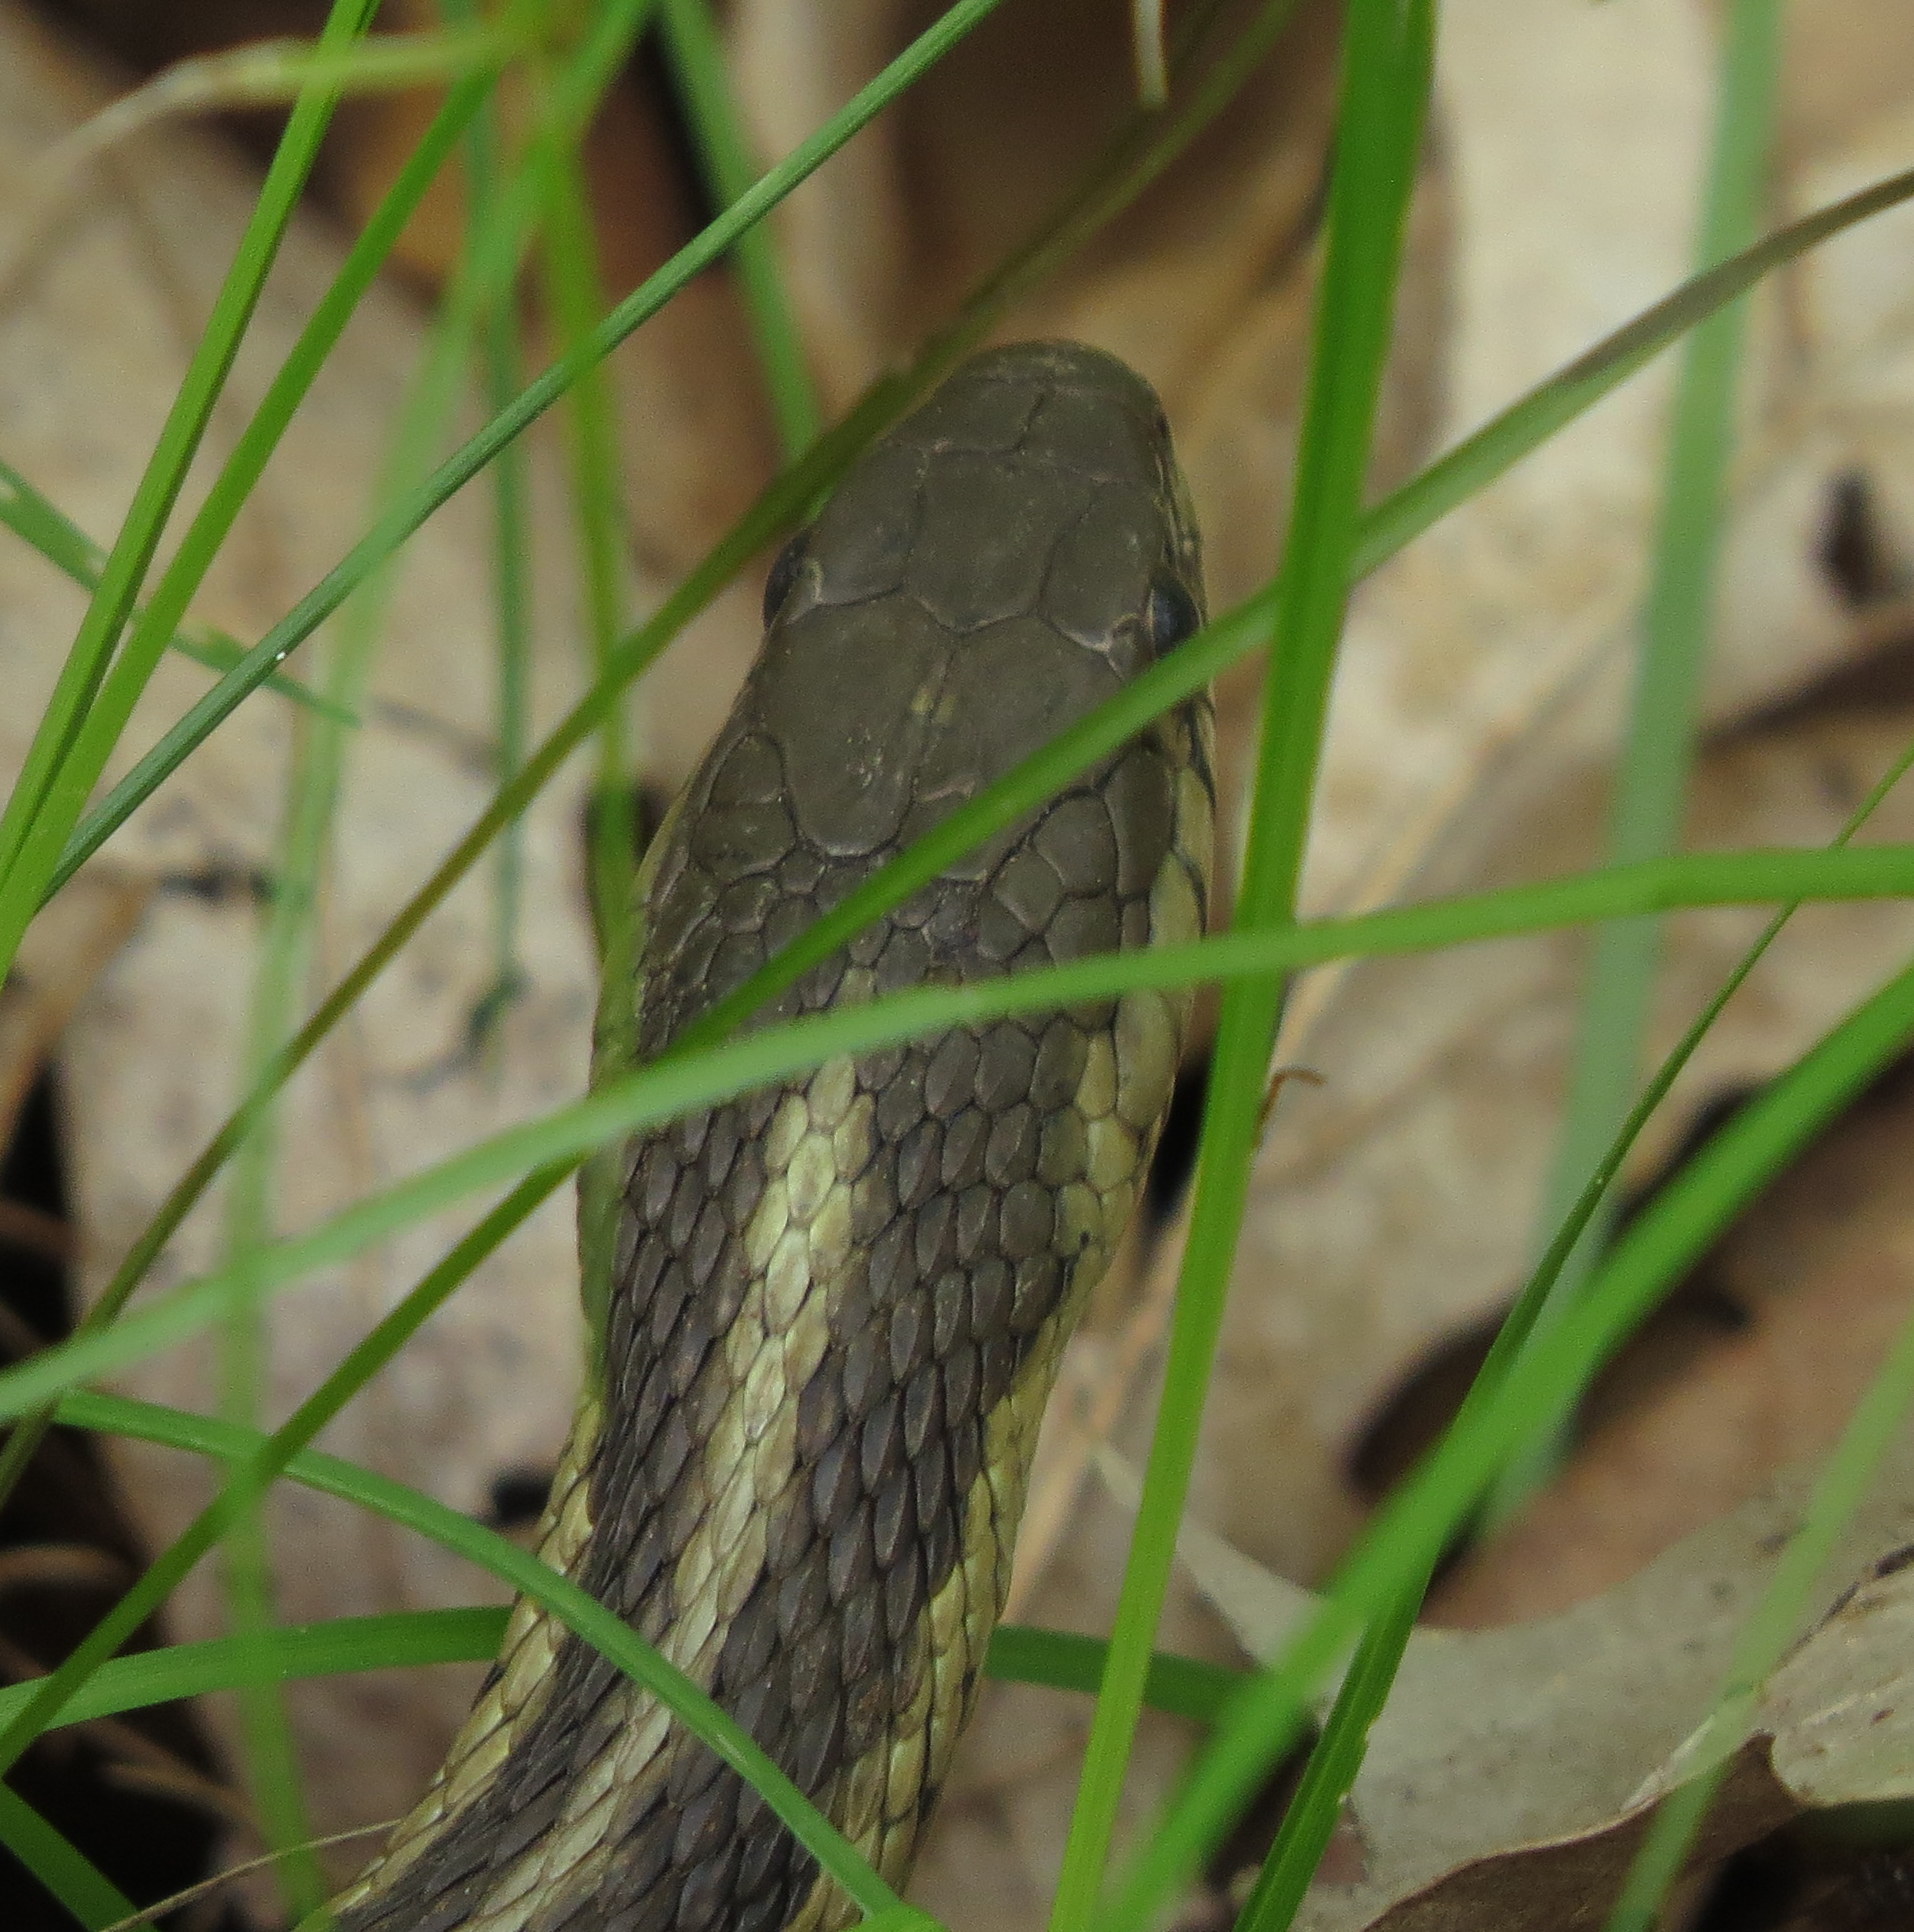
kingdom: Animalia
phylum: Chordata
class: Squamata
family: Colubridae
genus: Thamnophis
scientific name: Thamnophis sirtalis
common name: Common garter snake
